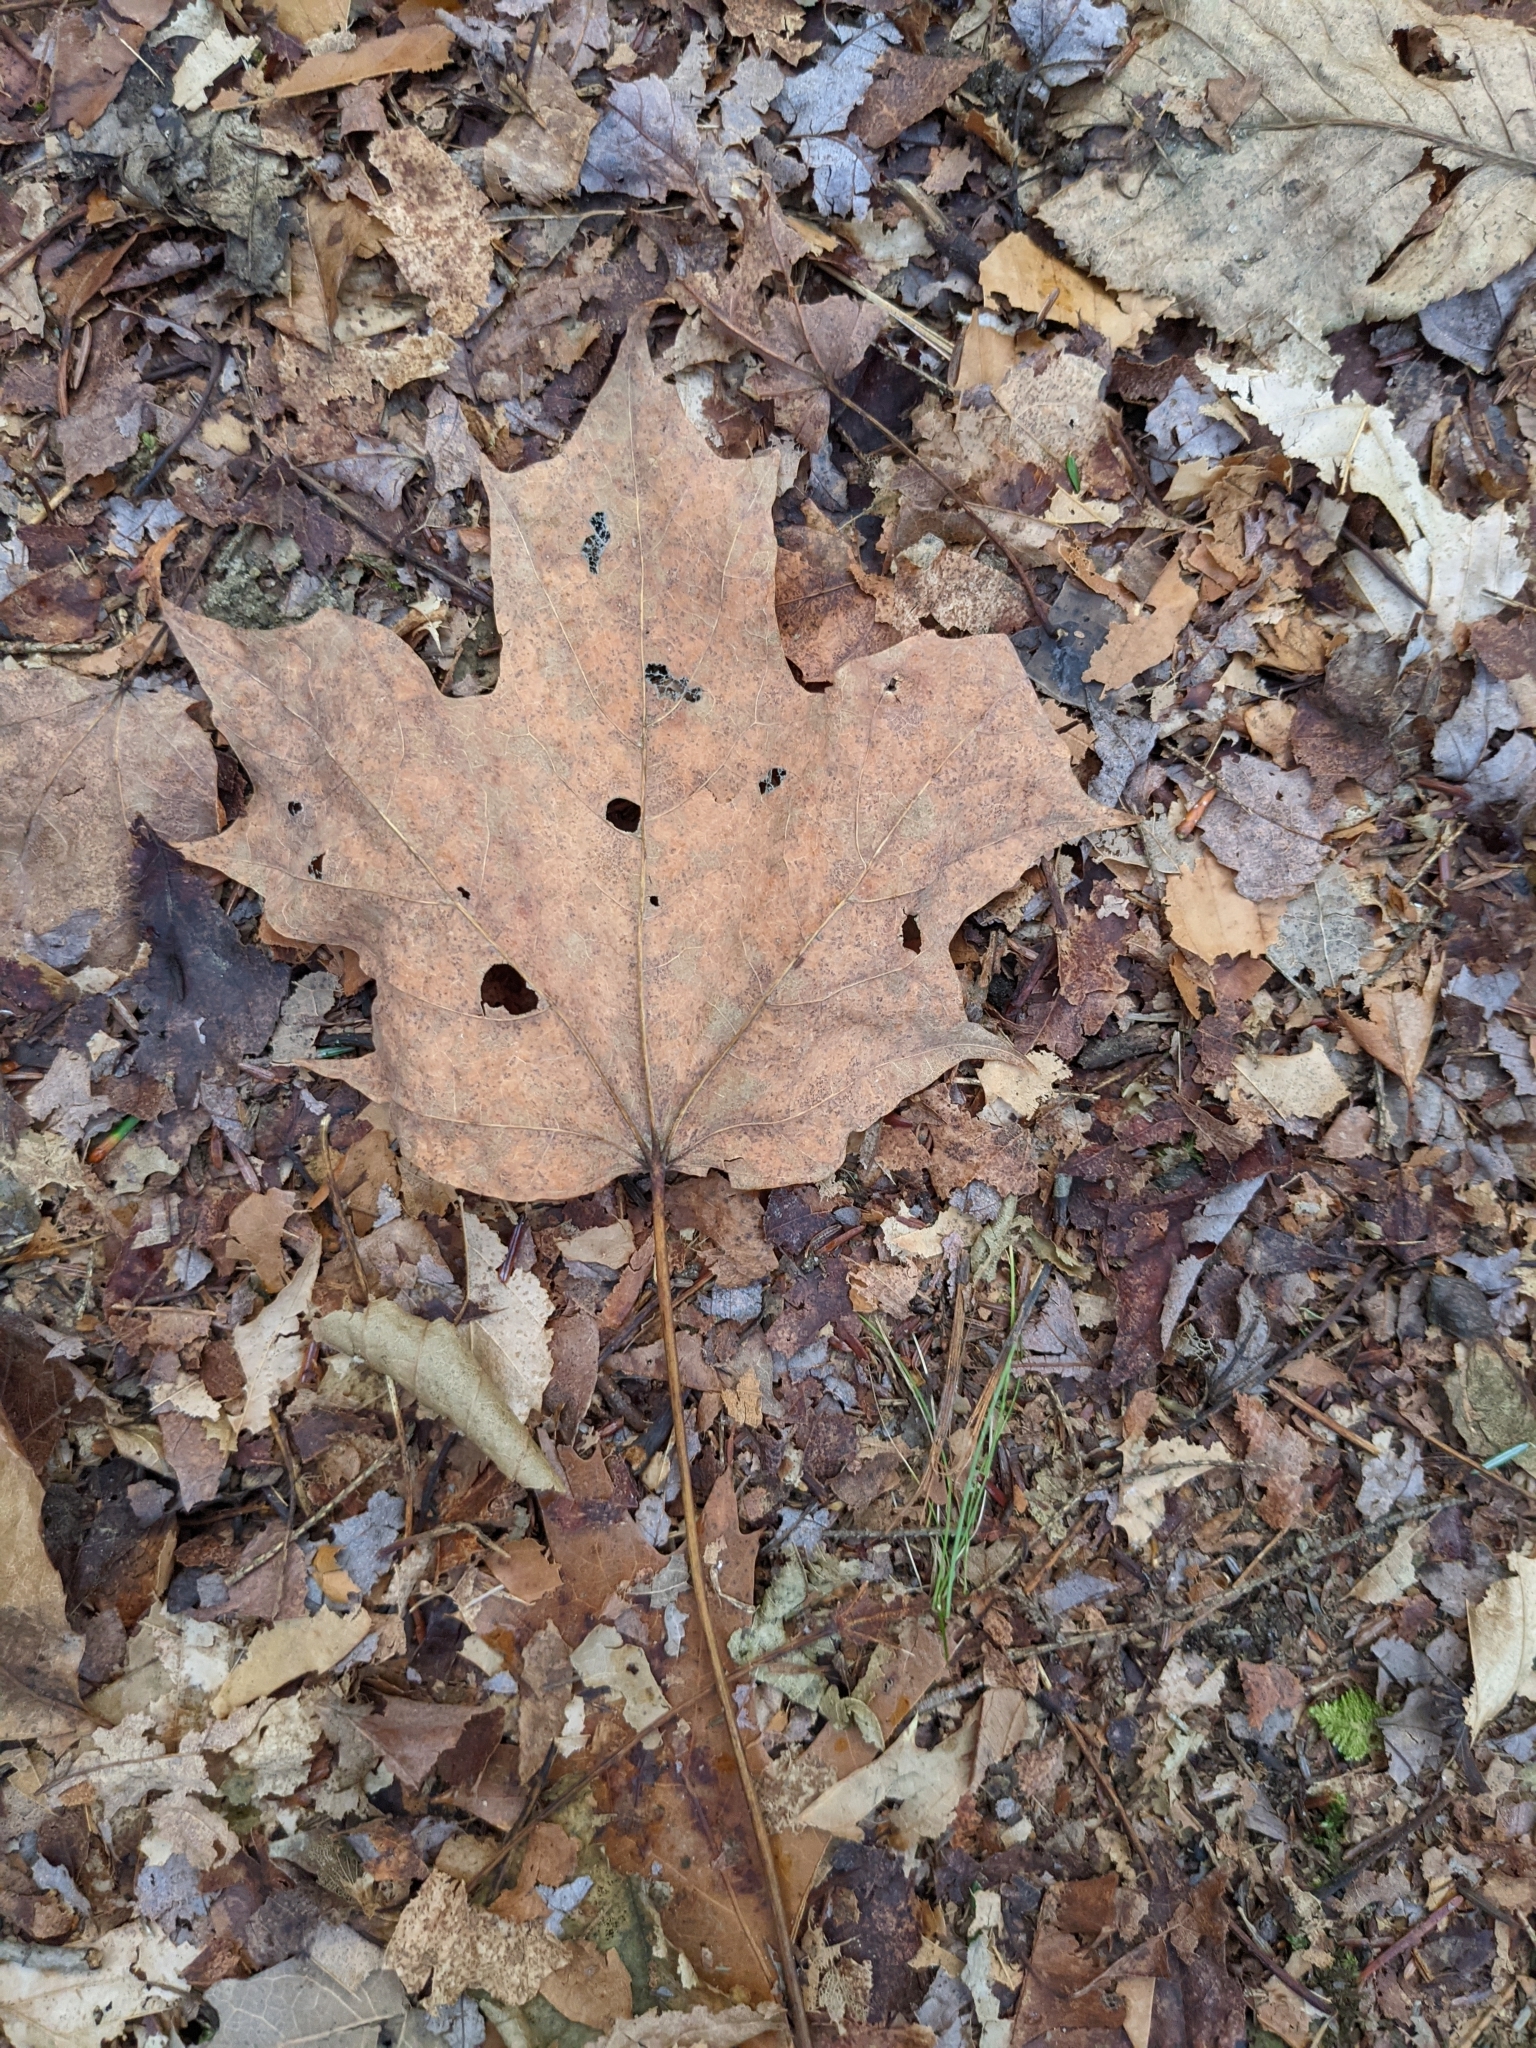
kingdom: Plantae
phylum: Tracheophyta
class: Magnoliopsida
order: Sapindales
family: Sapindaceae
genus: Acer
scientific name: Acer saccharum
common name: Sugar maple
